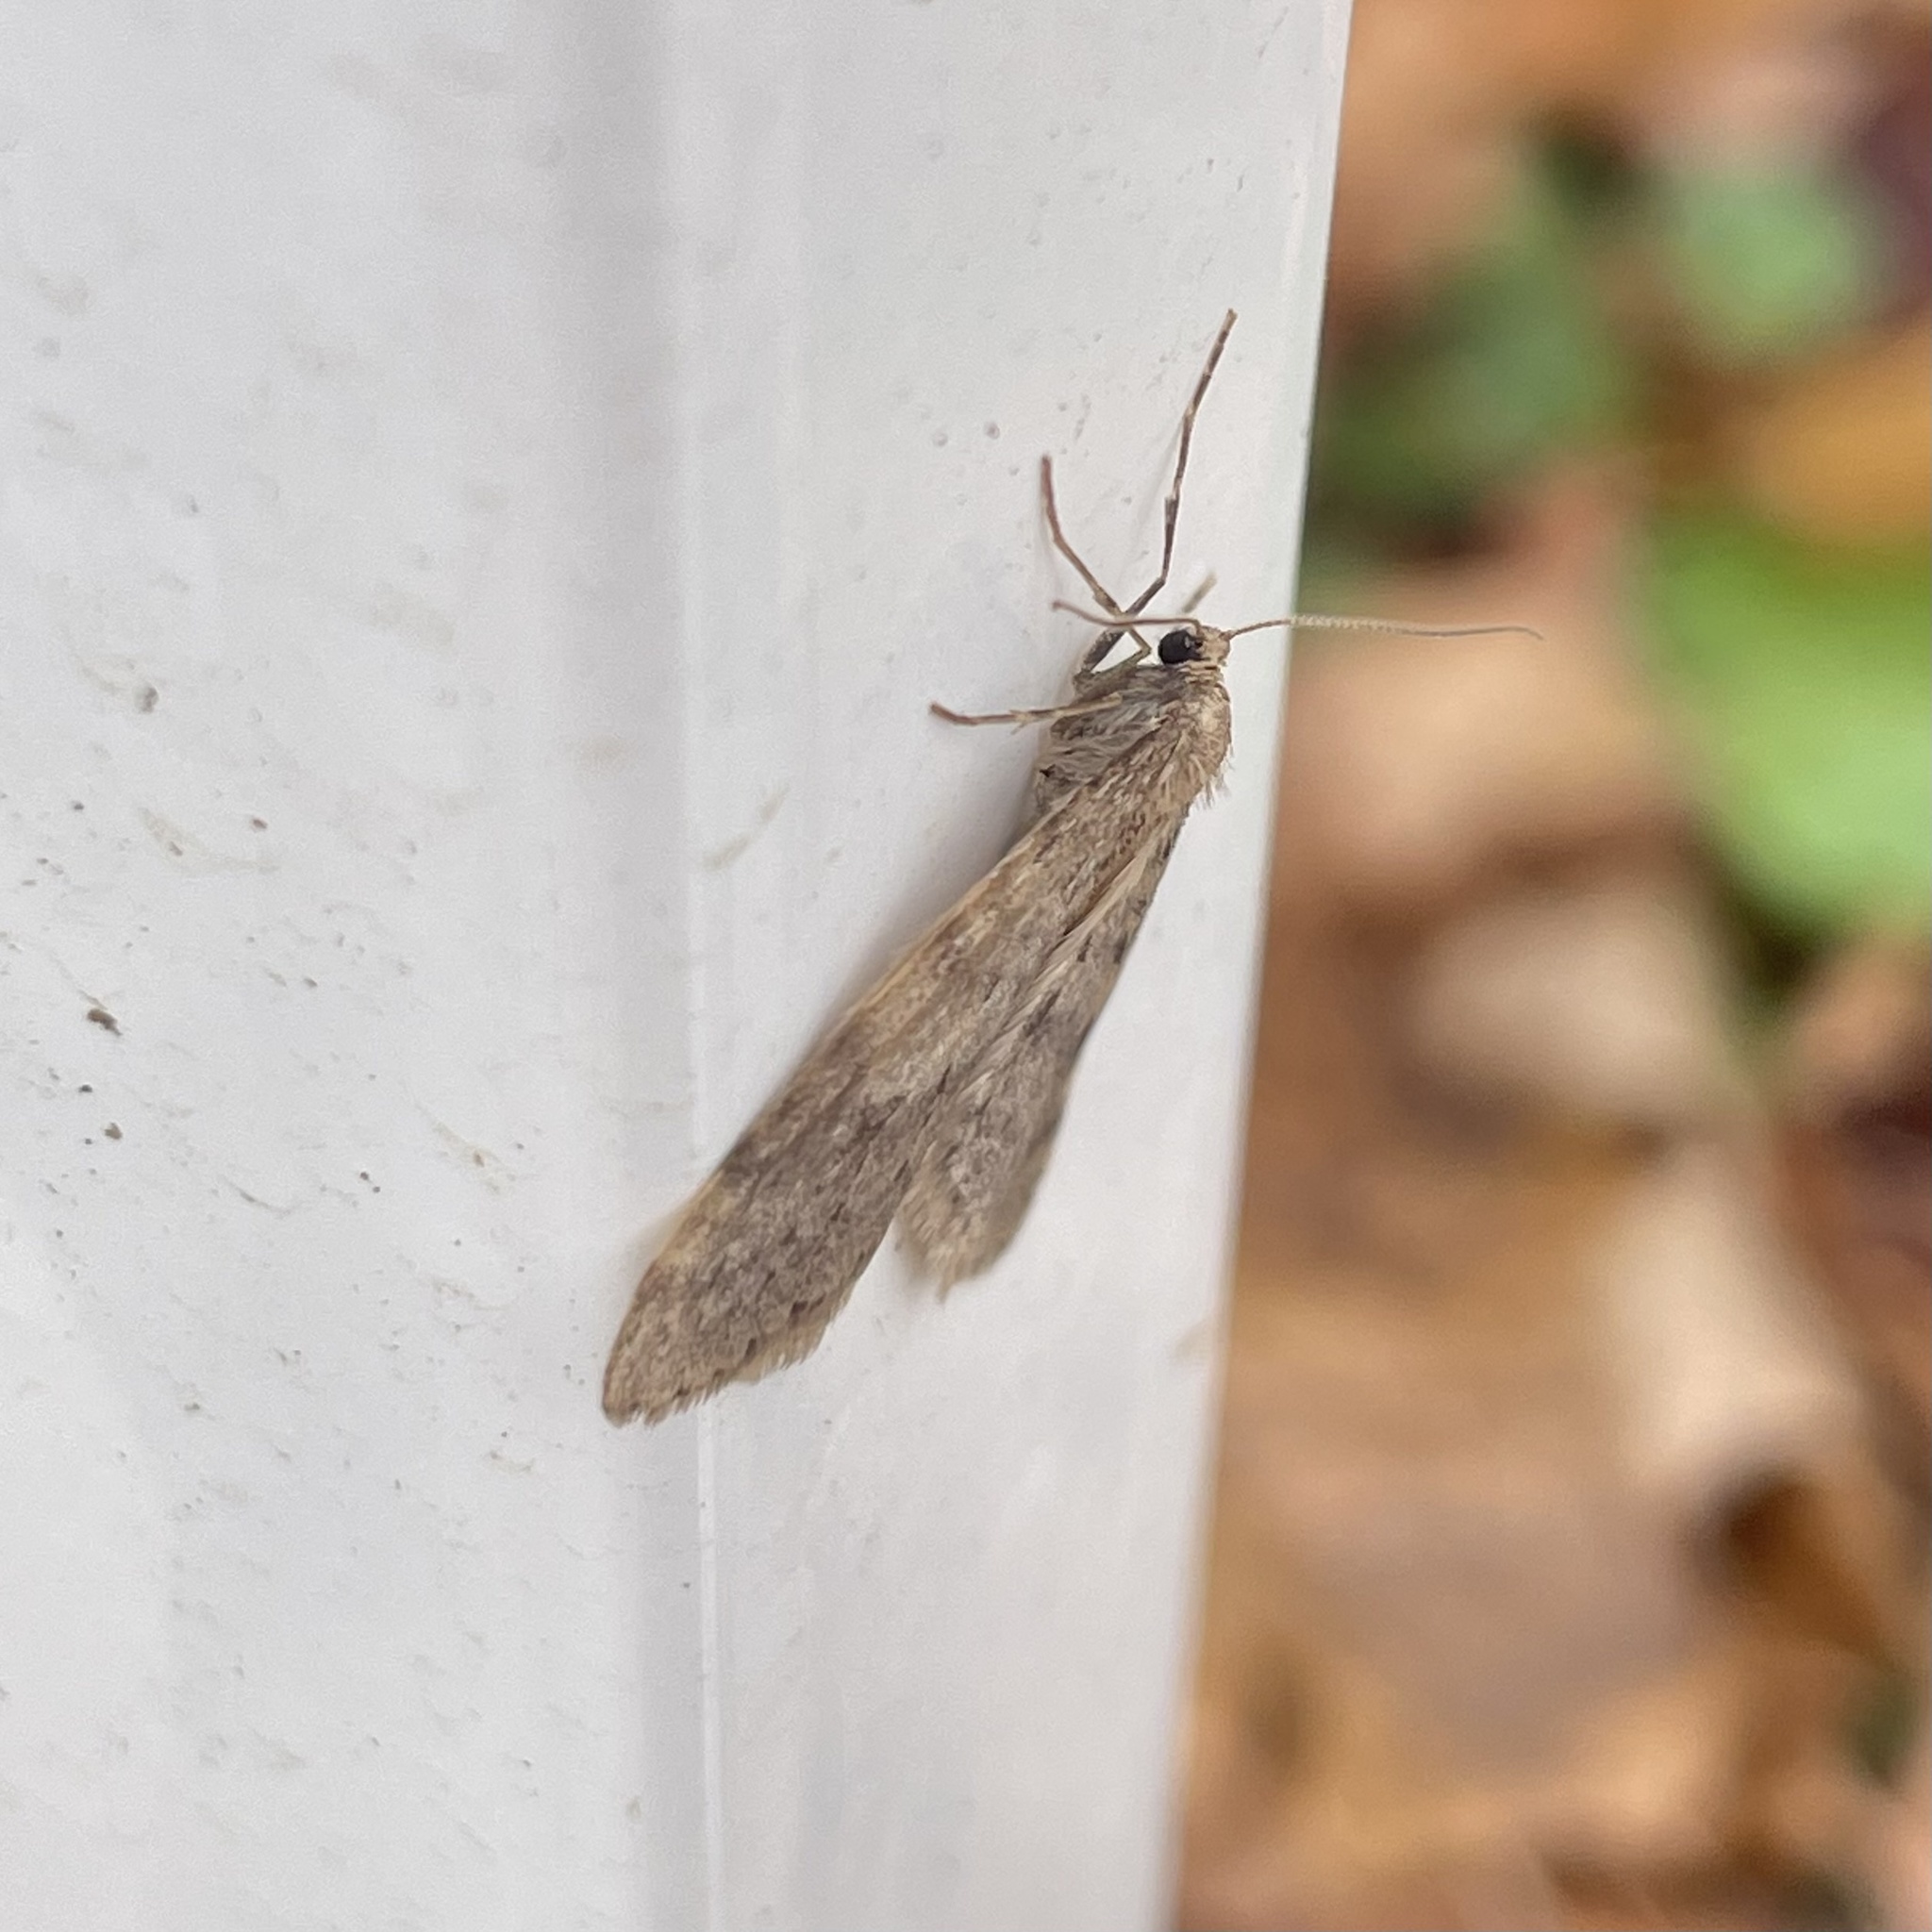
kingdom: Animalia
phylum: Arthropoda
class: Insecta
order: Lepidoptera
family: Geometridae
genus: Operophtera
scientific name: Operophtera bruceata
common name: Bruce spanworm
